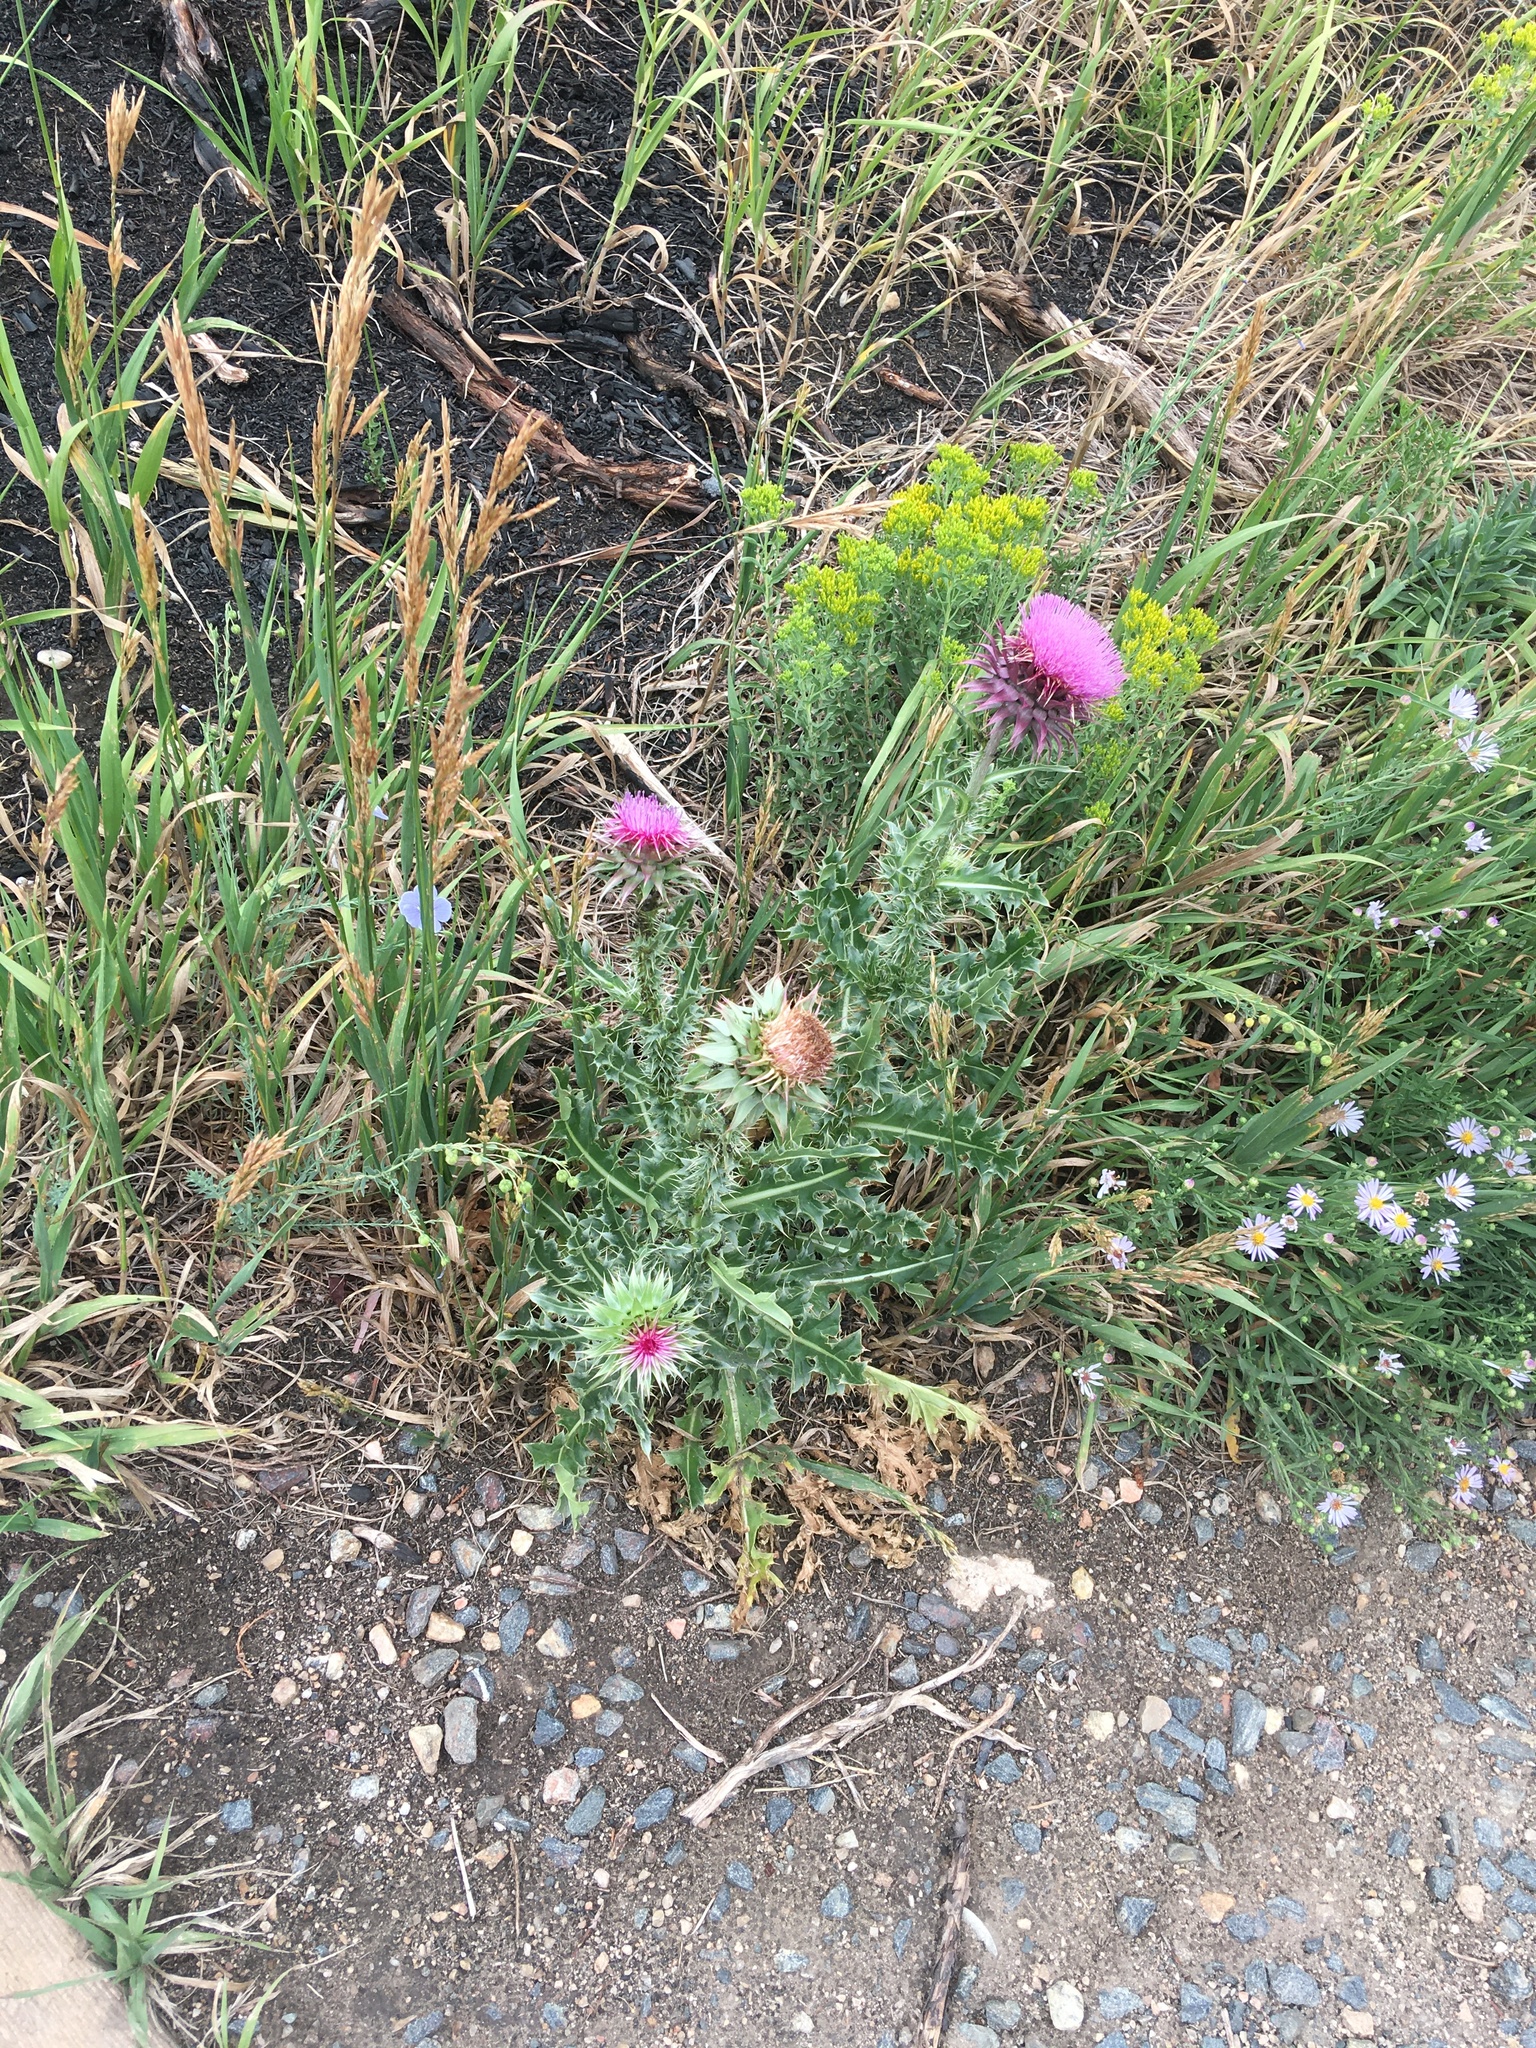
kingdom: Plantae
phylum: Tracheophyta
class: Magnoliopsida
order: Asterales
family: Asteraceae
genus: Carduus
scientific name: Carduus nutans
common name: Musk thistle
